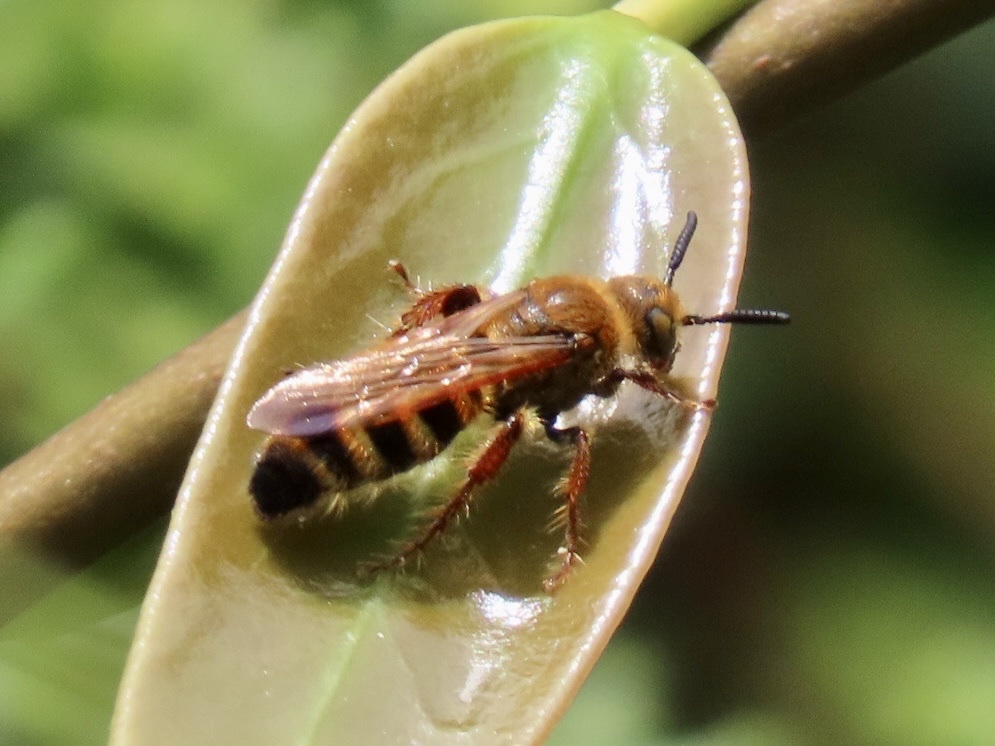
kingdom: Animalia
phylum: Arthropoda
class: Insecta
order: Hymenoptera
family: Scoliidae
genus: Campsomeris
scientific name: Campsomeris phalerata
